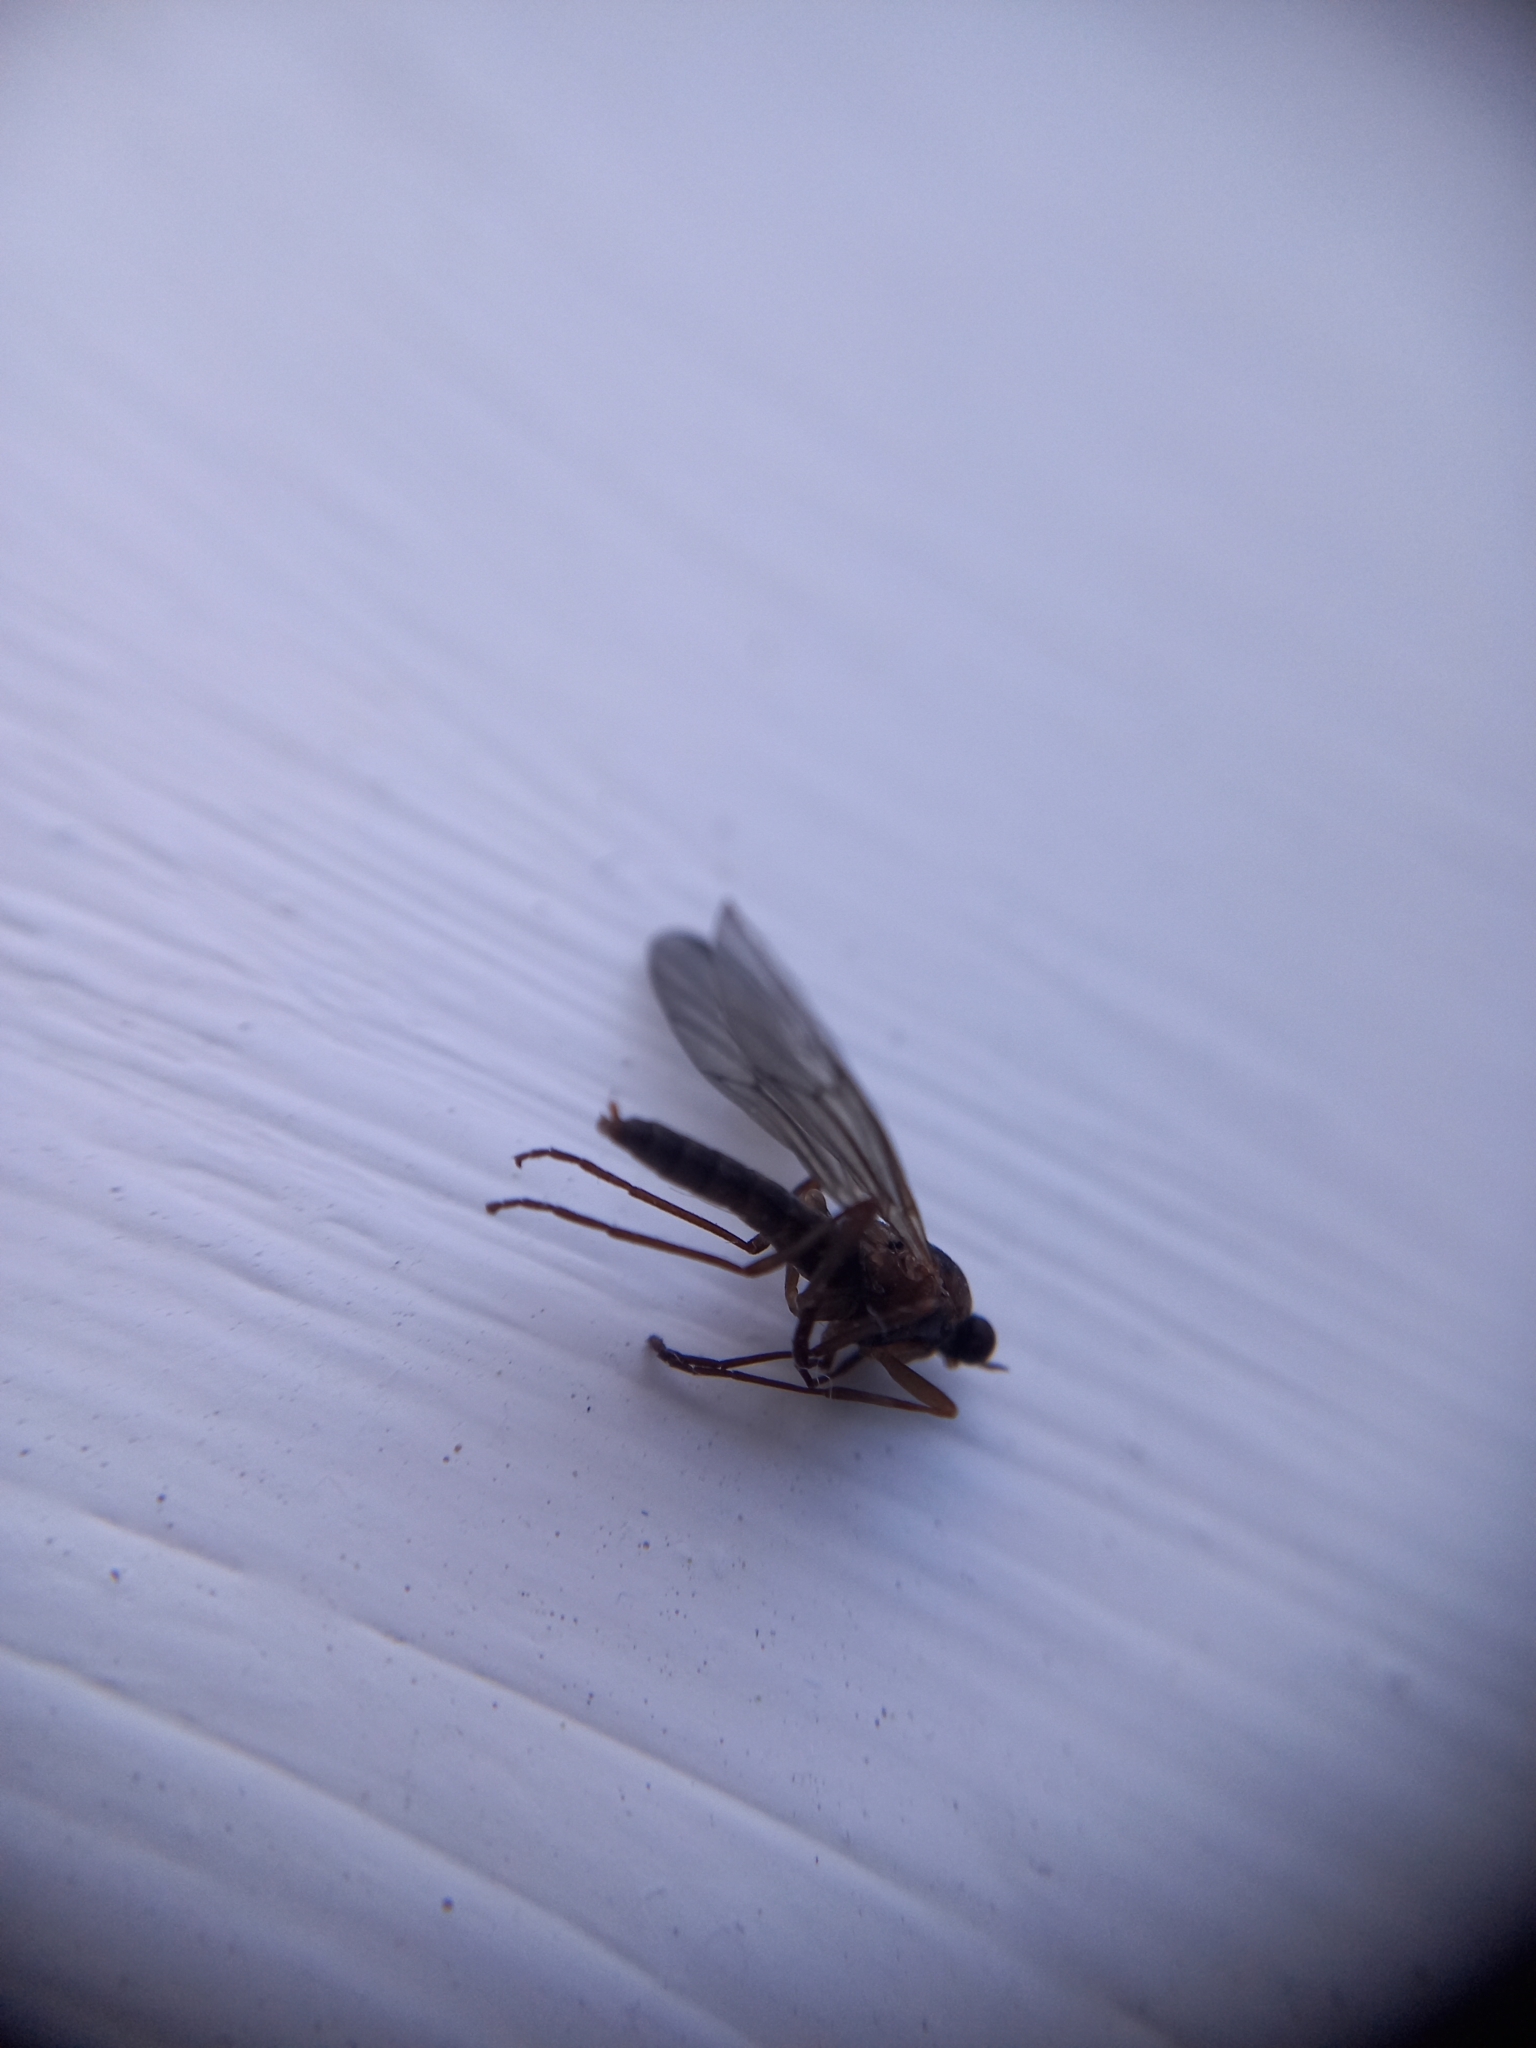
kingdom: Animalia
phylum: Arthropoda
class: Insecta
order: Diptera
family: Stratiomyidae
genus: Boreoides
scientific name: Boreoides tasmaniensis
